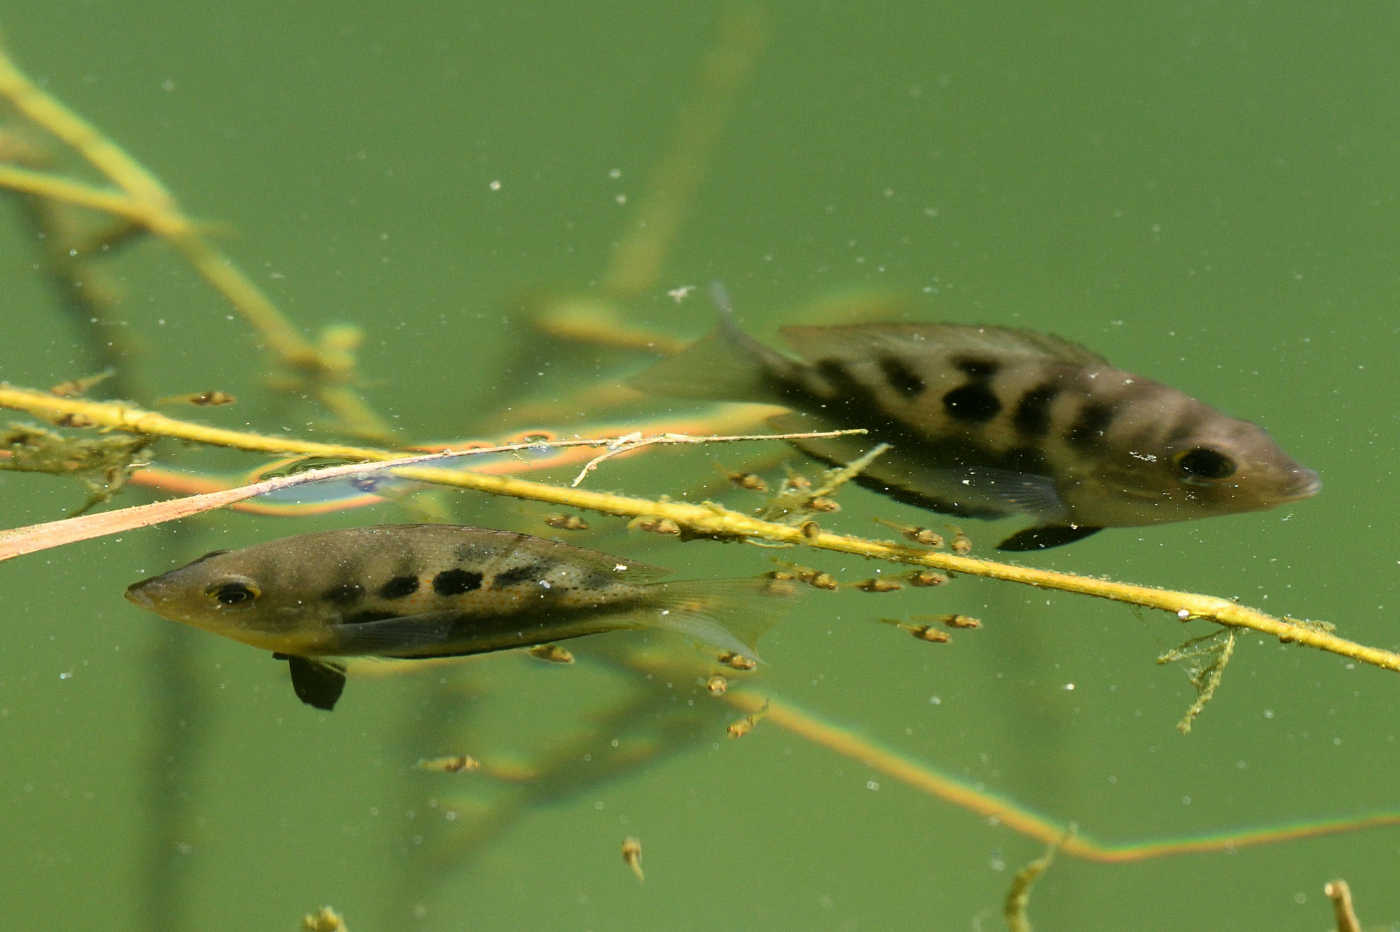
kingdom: Animalia
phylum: Chordata
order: Perciformes
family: Cichlidae
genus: Etroplus
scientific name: Etroplus maculatus
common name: Orange chromide
